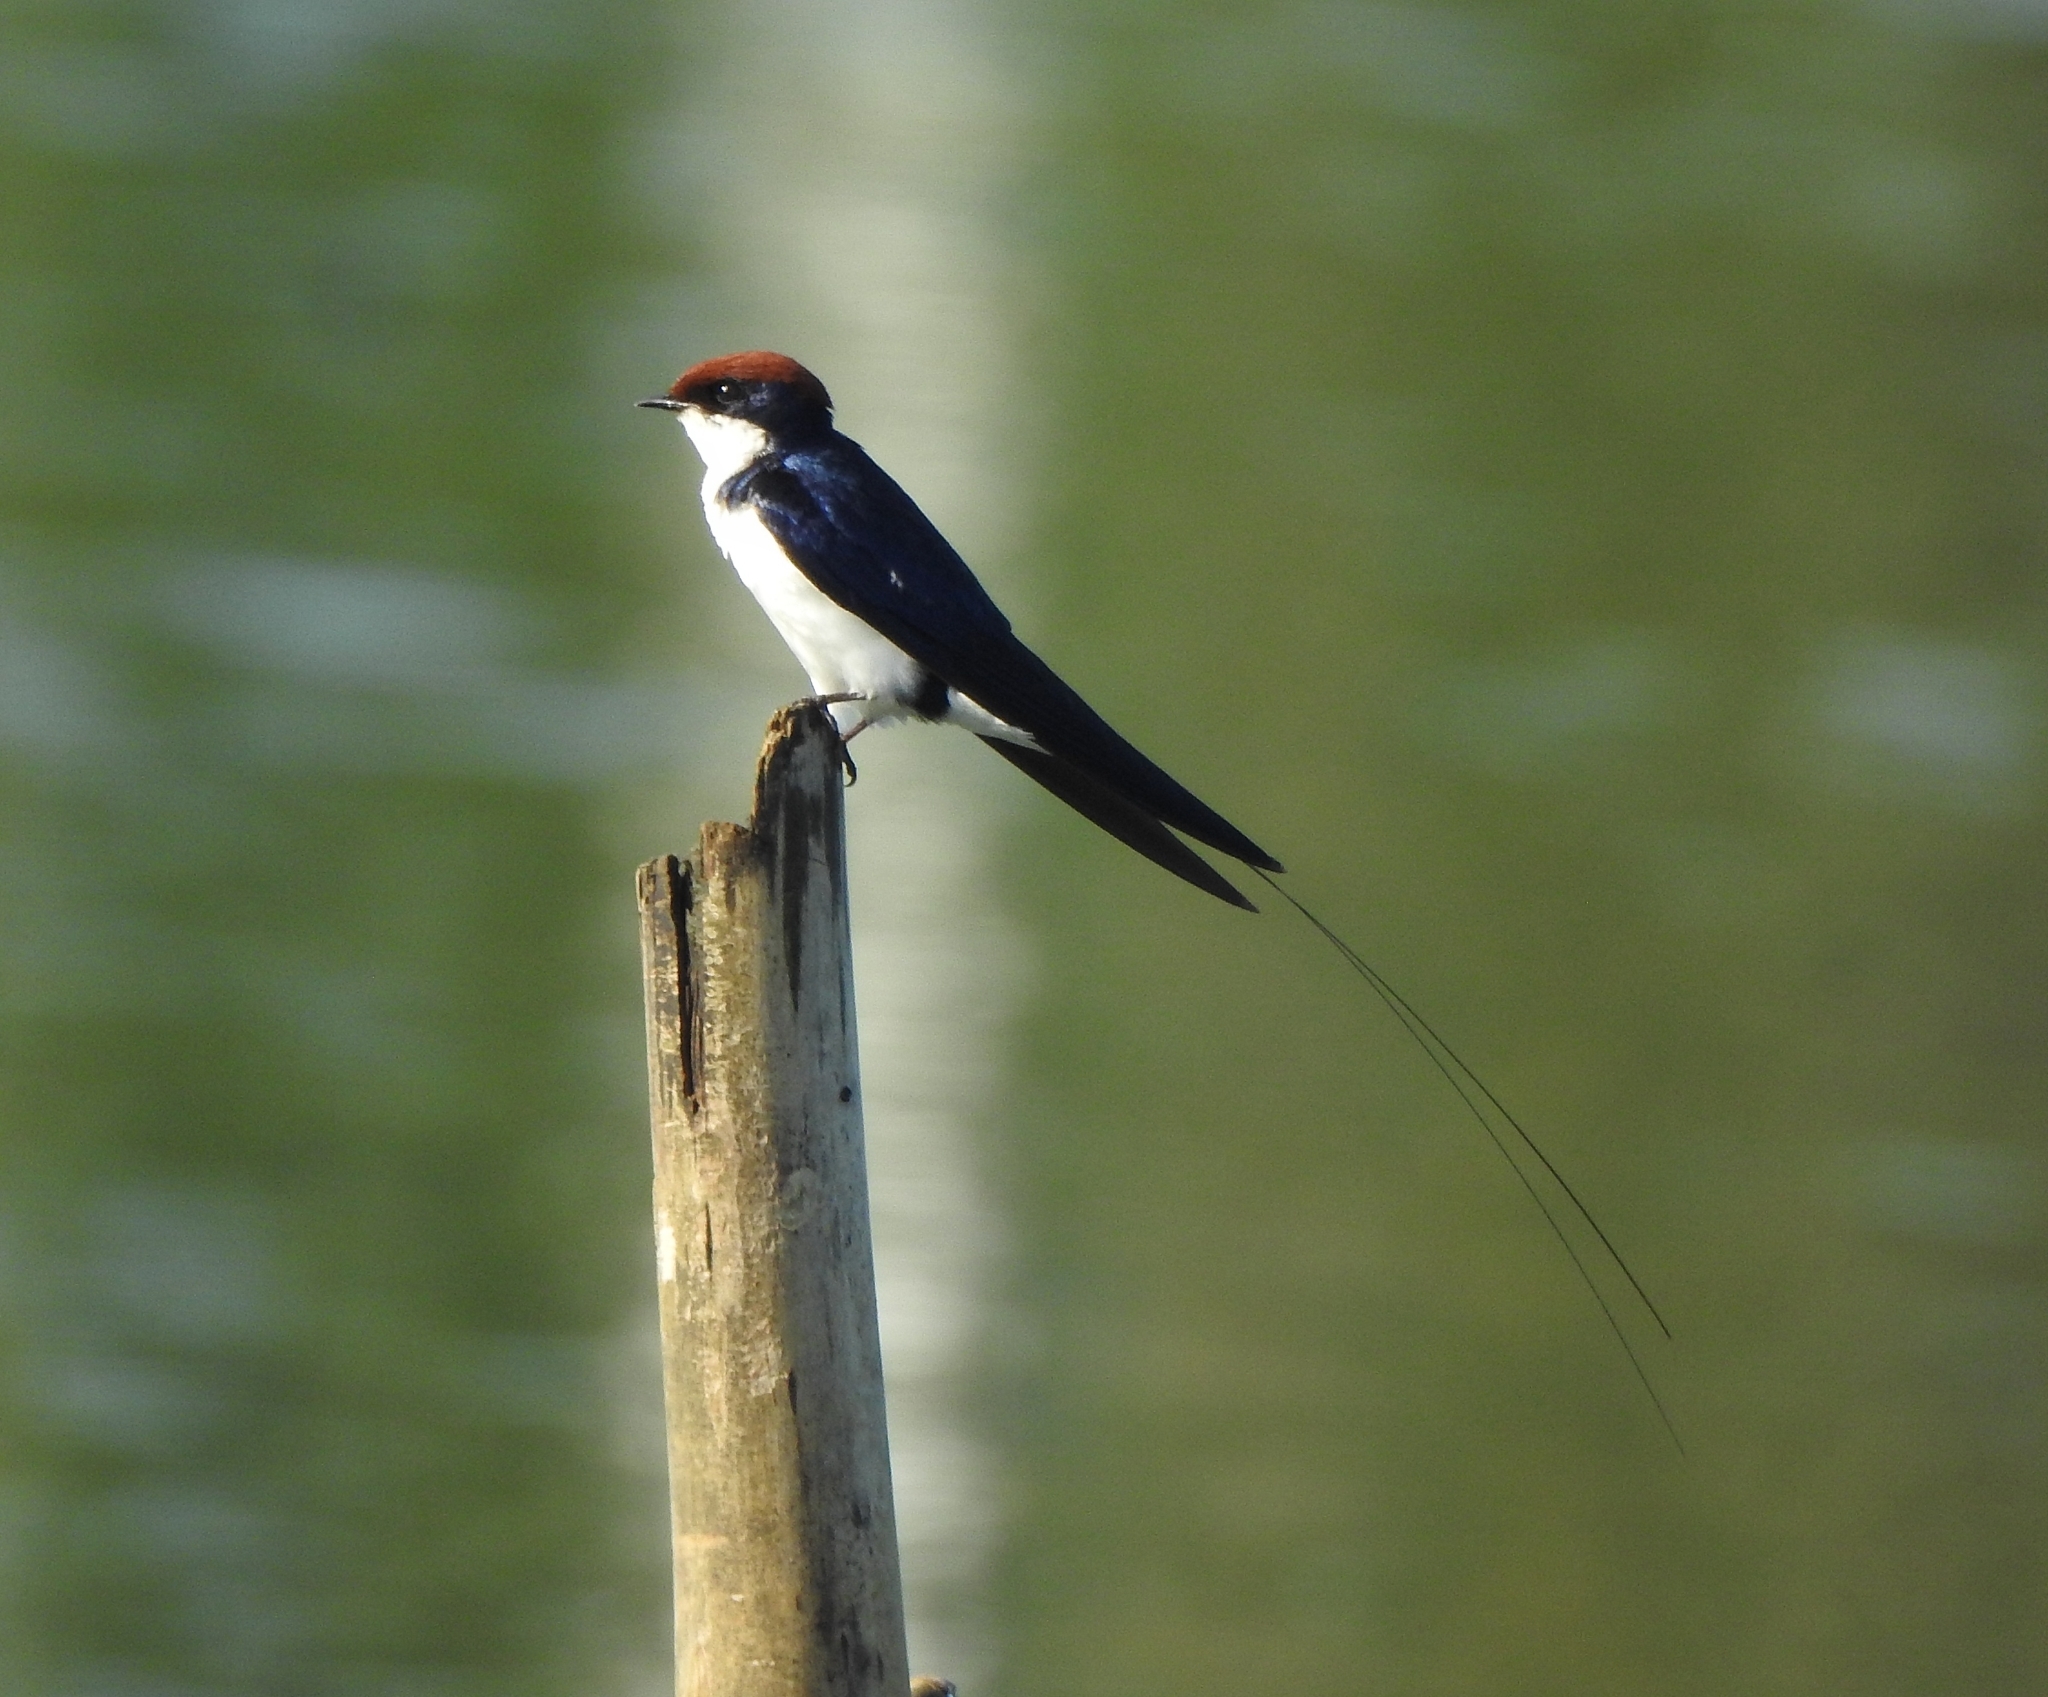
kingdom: Animalia
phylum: Chordata
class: Aves
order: Passeriformes
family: Hirundinidae
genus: Hirundo
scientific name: Hirundo smithii
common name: Wire-tailed swallow
